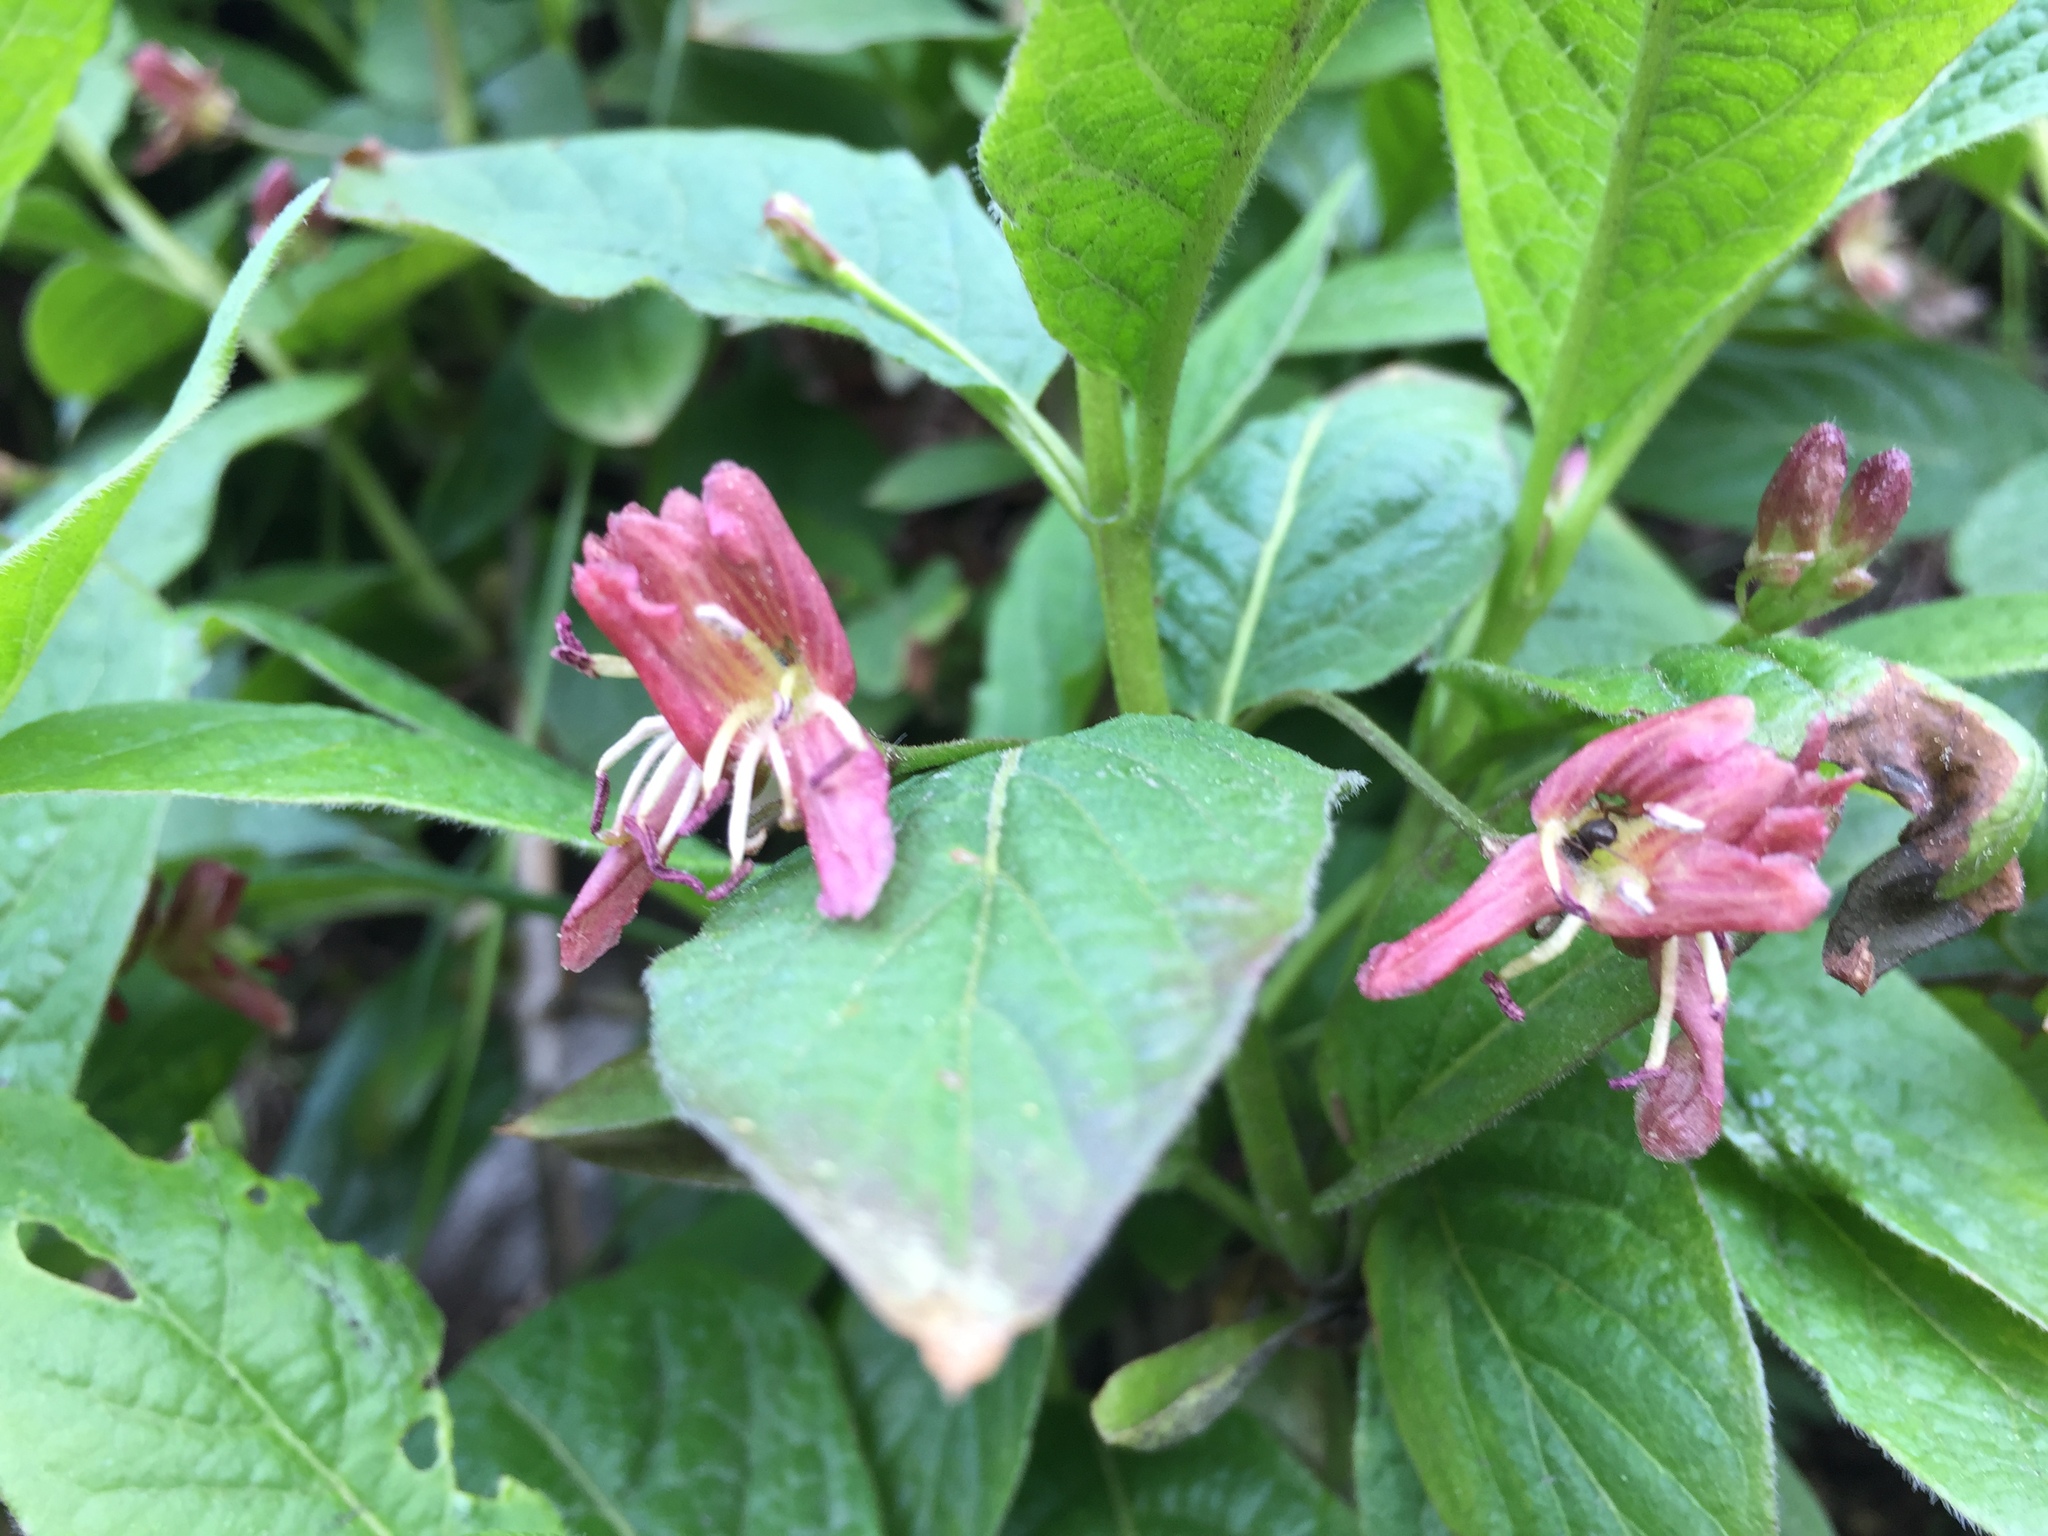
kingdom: Plantae
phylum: Tracheophyta
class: Magnoliopsida
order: Dipsacales
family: Caprifoliaceae
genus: Lonicera
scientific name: Lonicera alpigena
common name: Alpine honeysuckle
